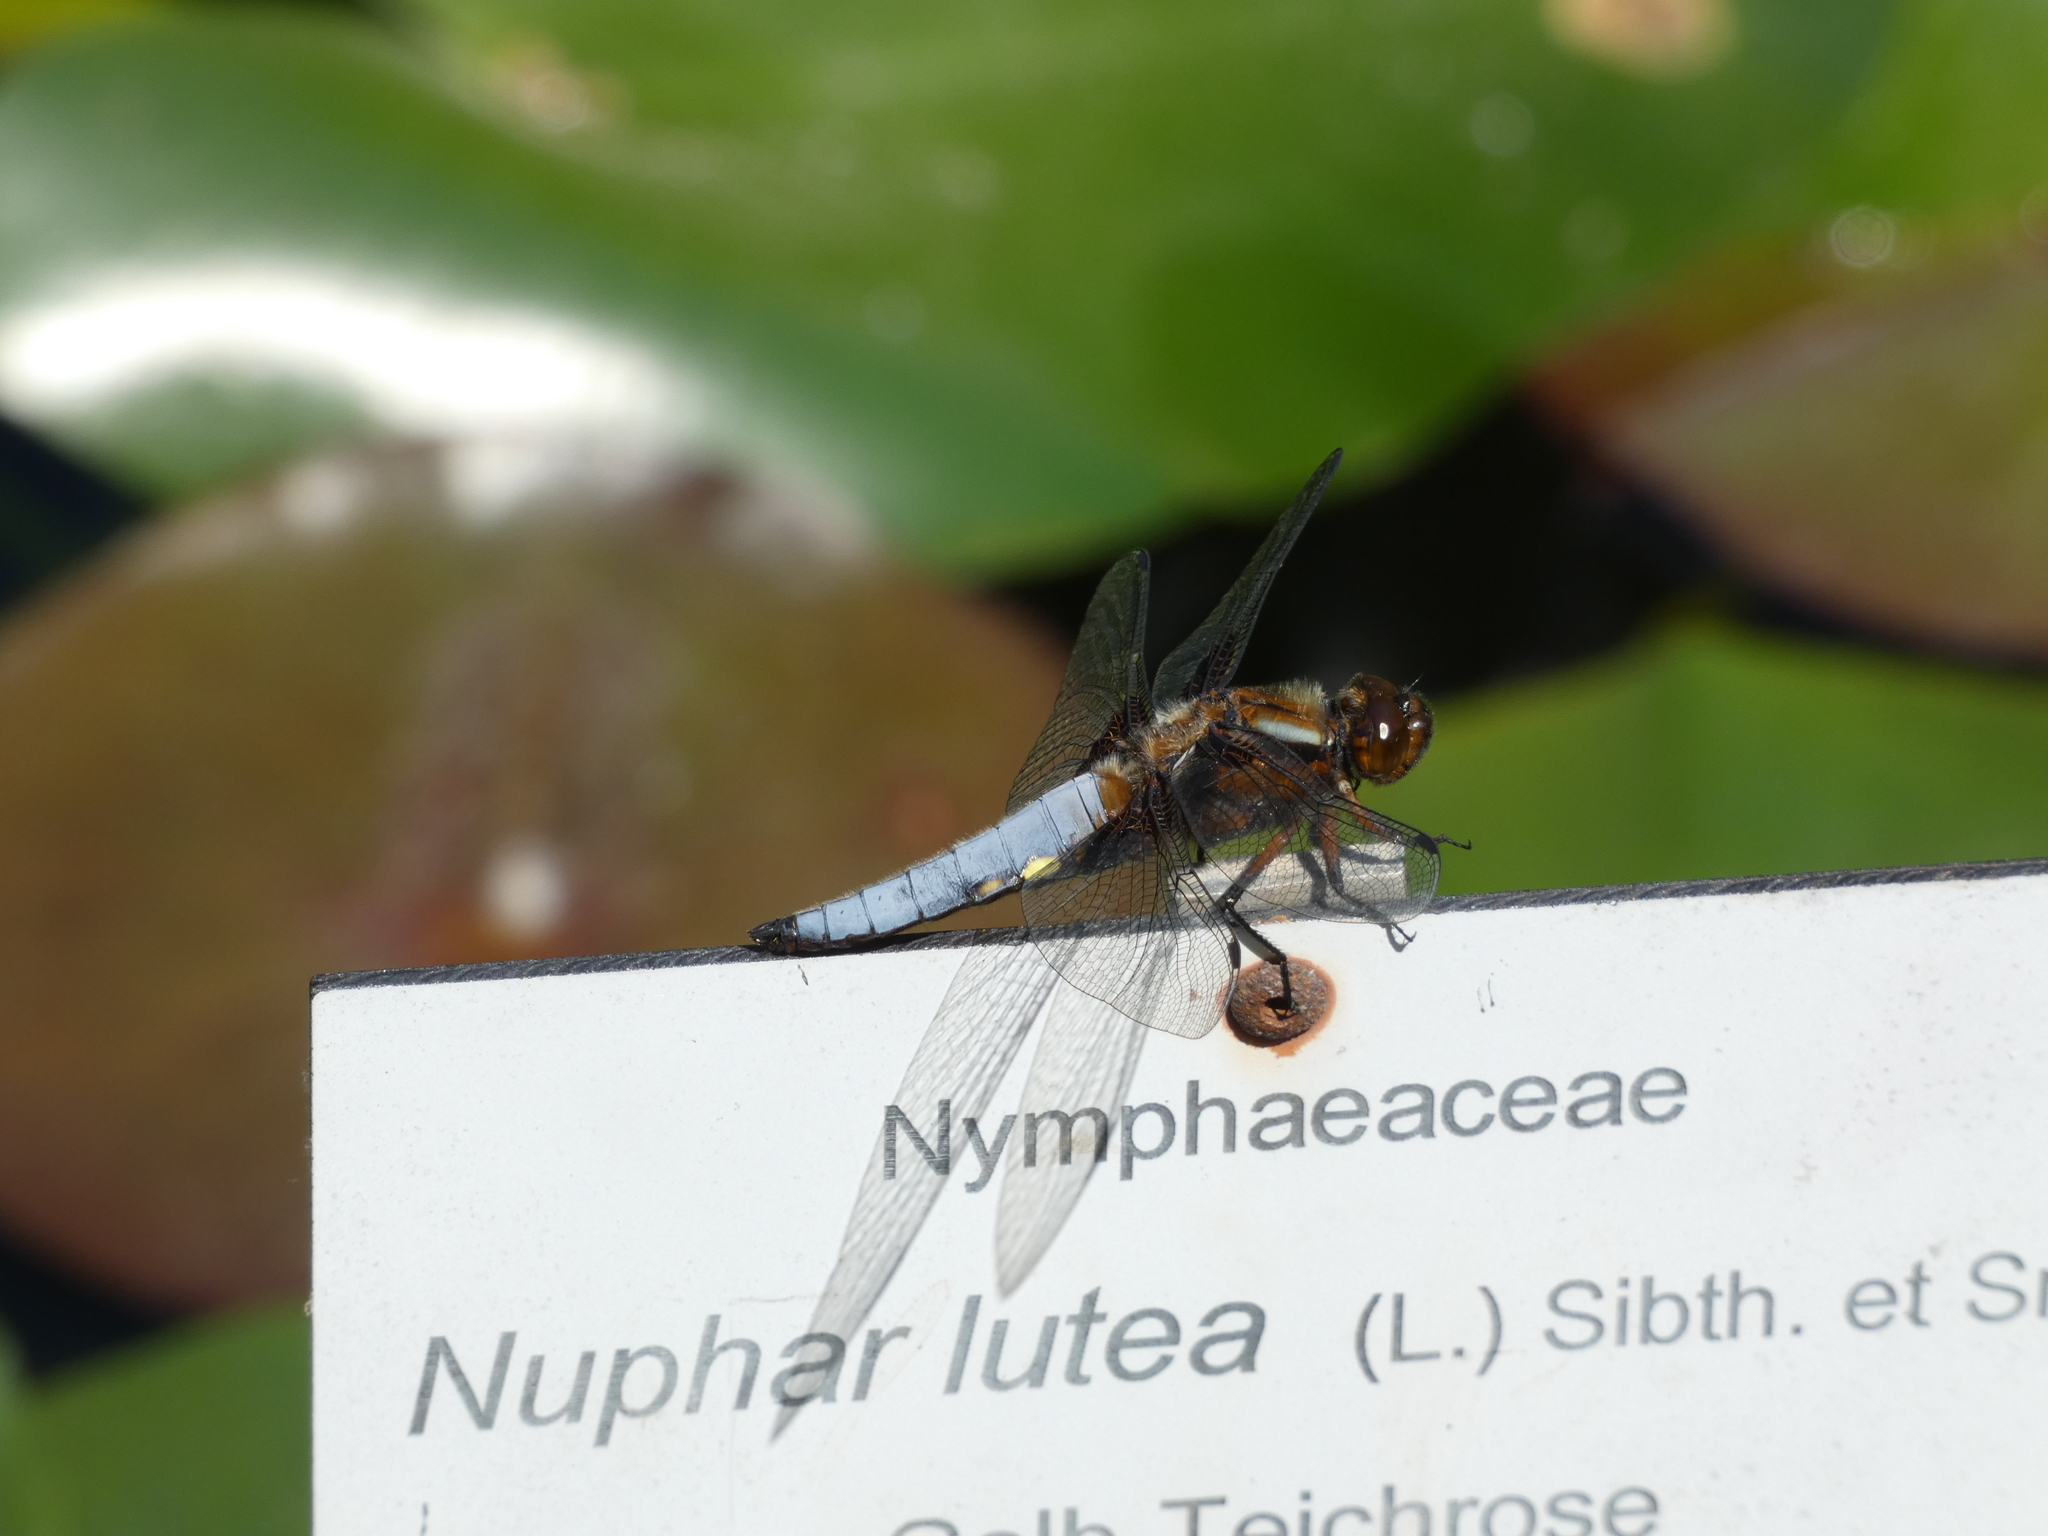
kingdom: Animalia
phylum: Arthropoda
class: Insecta
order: Odonata
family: Libellulidae
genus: Libellula
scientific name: Libellula depressa
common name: Broad-bodied chaser
